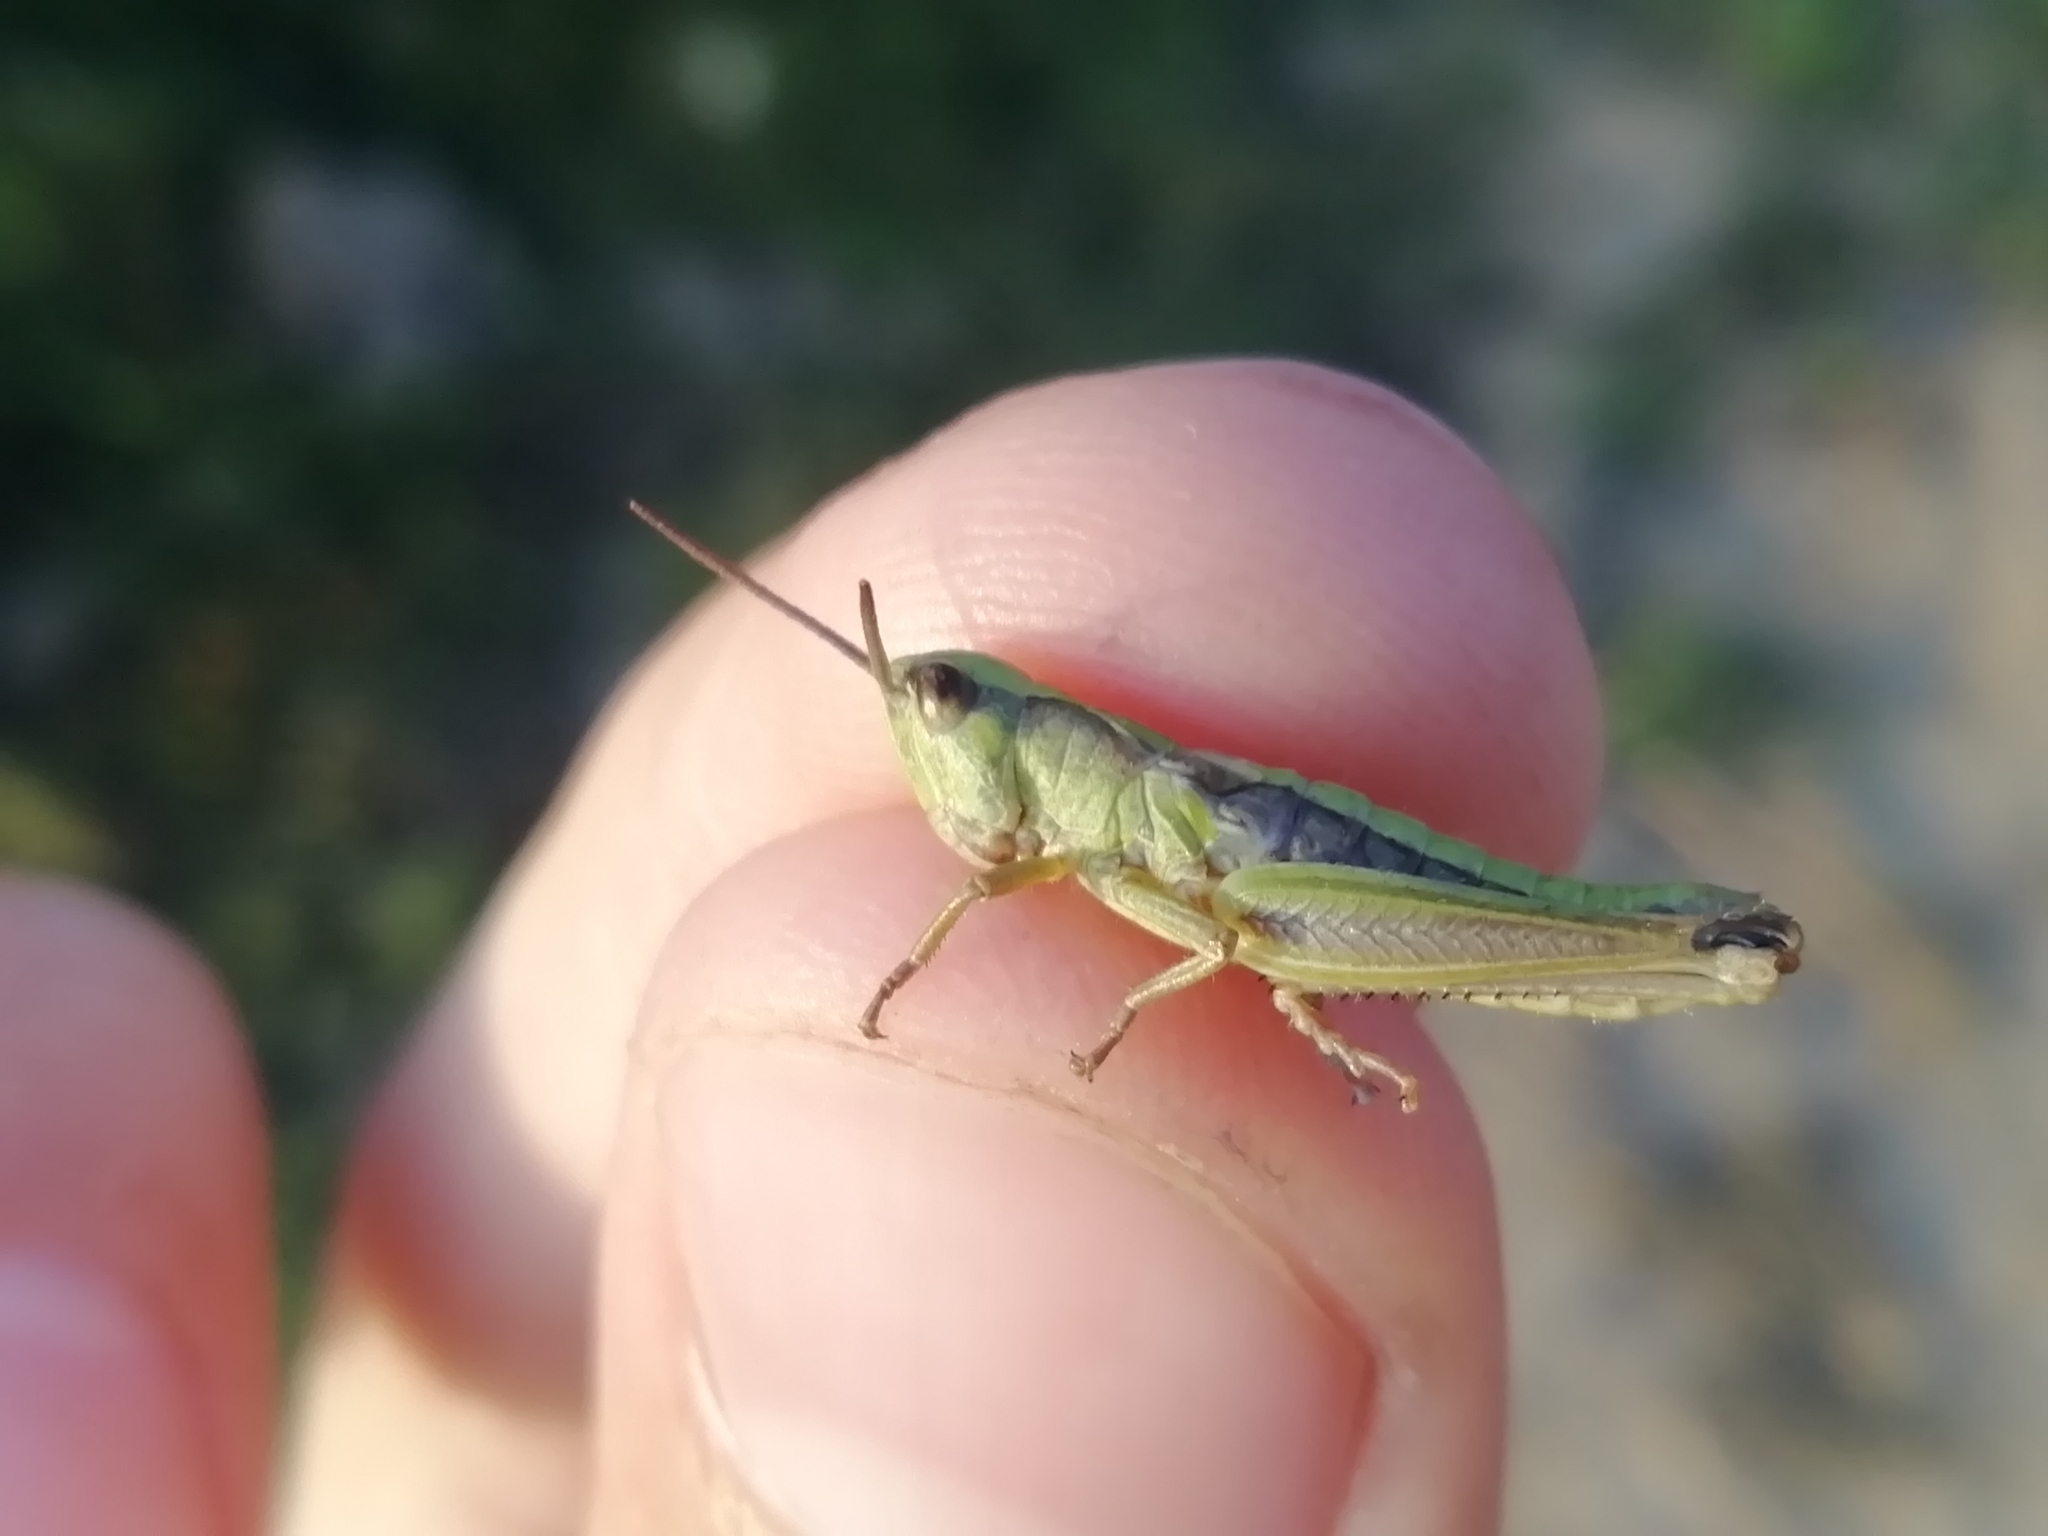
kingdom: Animalia
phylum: Arthropoda
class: Insecta
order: Orthoptera
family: Acrididae
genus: Chorthippus
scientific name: Chorthippus fallax
